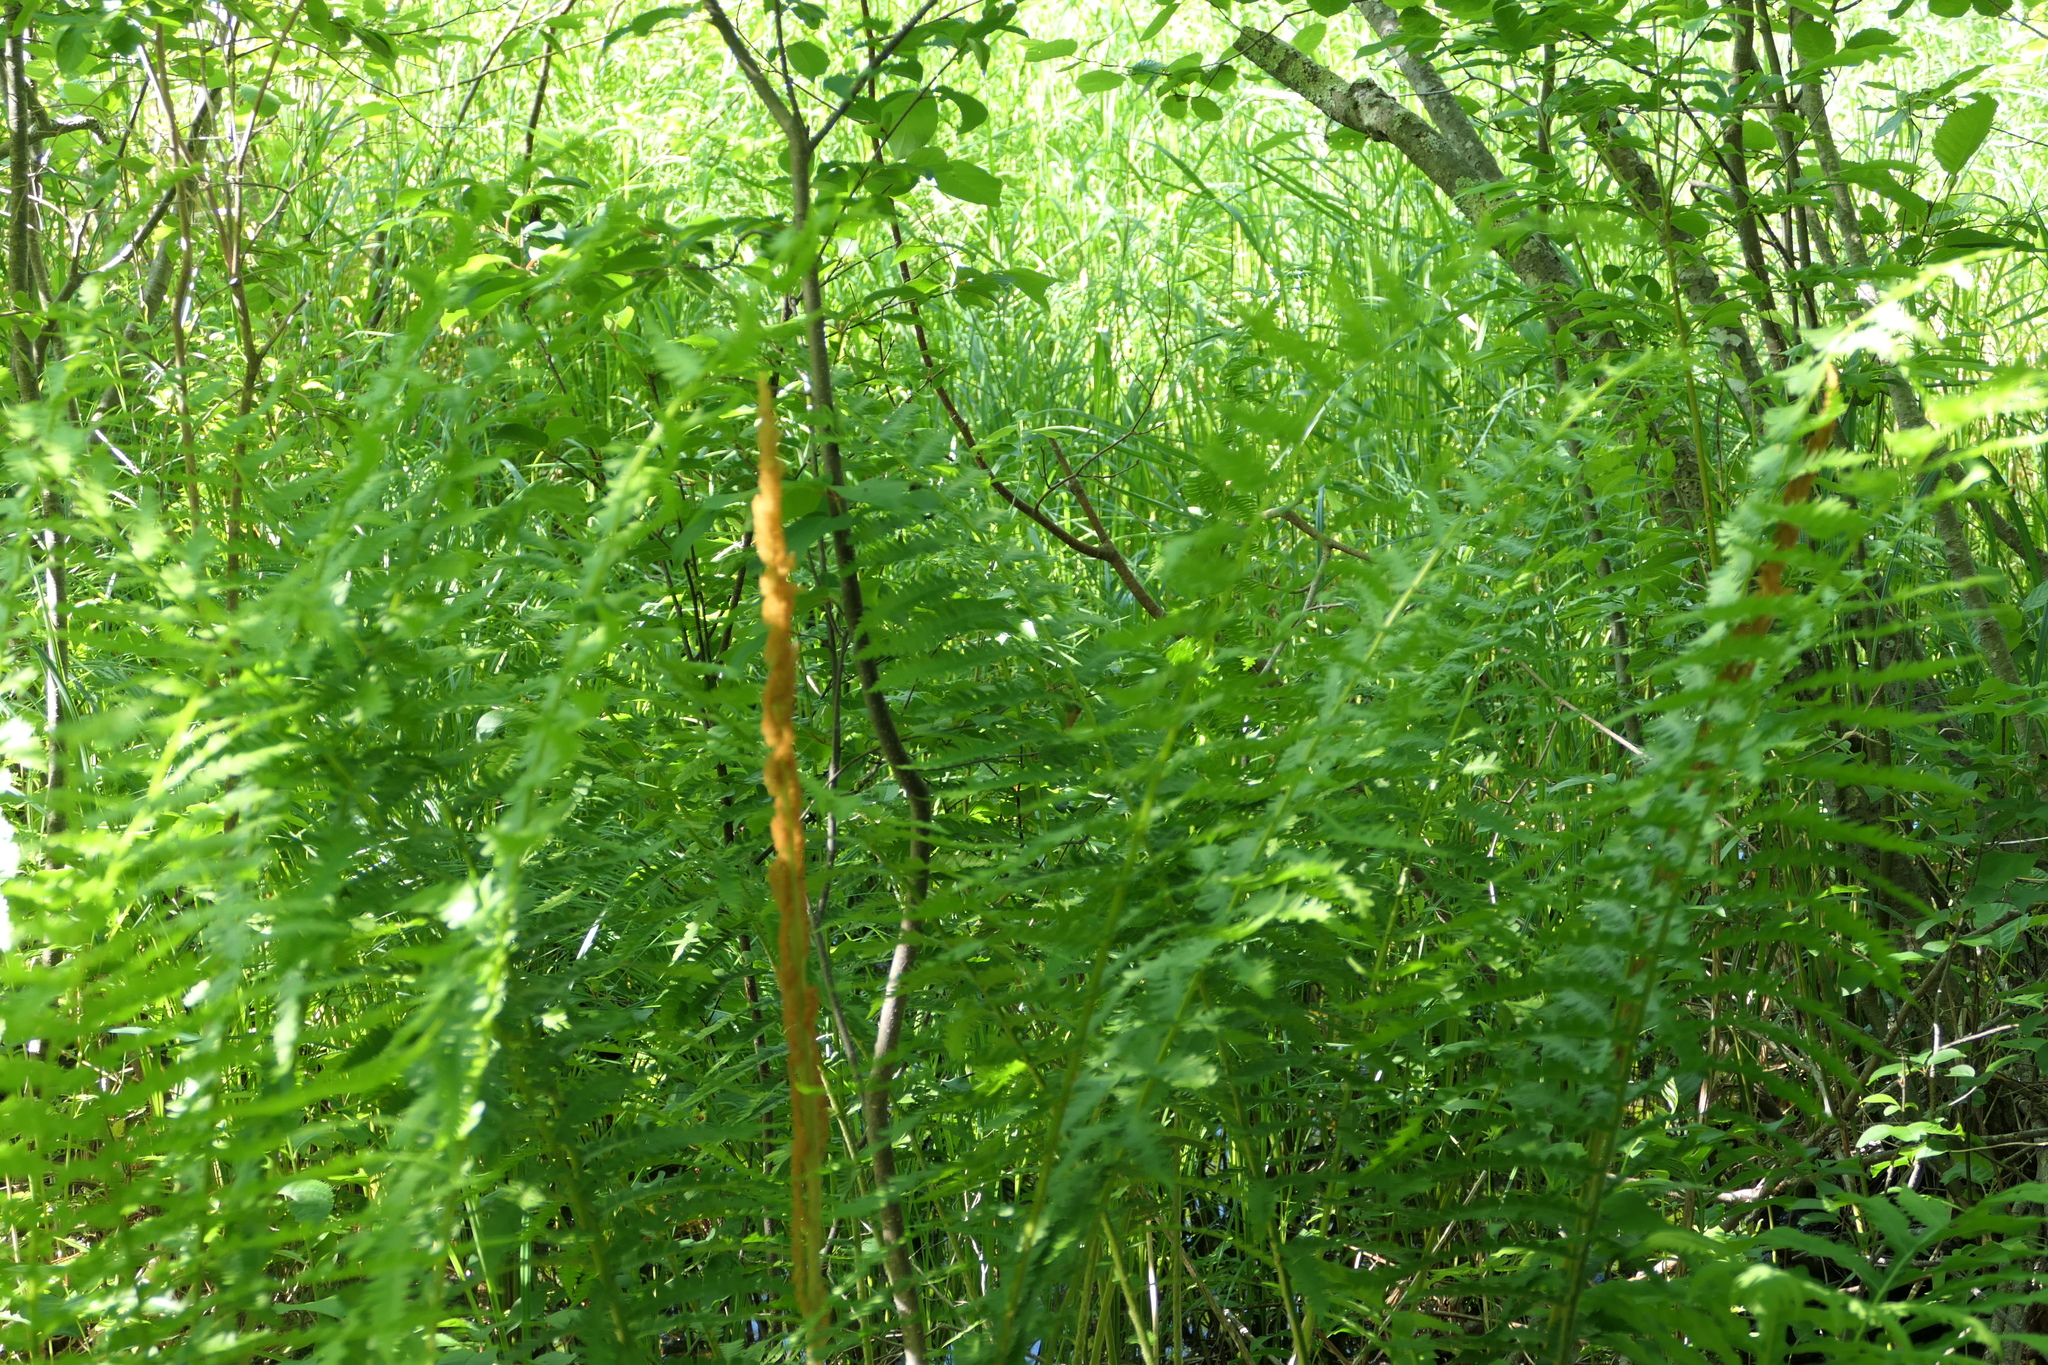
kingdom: Plantae
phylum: Tracheophyta
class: Polypodiopsida
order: Osmundales
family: Osmundaceae
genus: Osmundastrum
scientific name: Osmundastrum cinnamomeum
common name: Cinnamon fern
